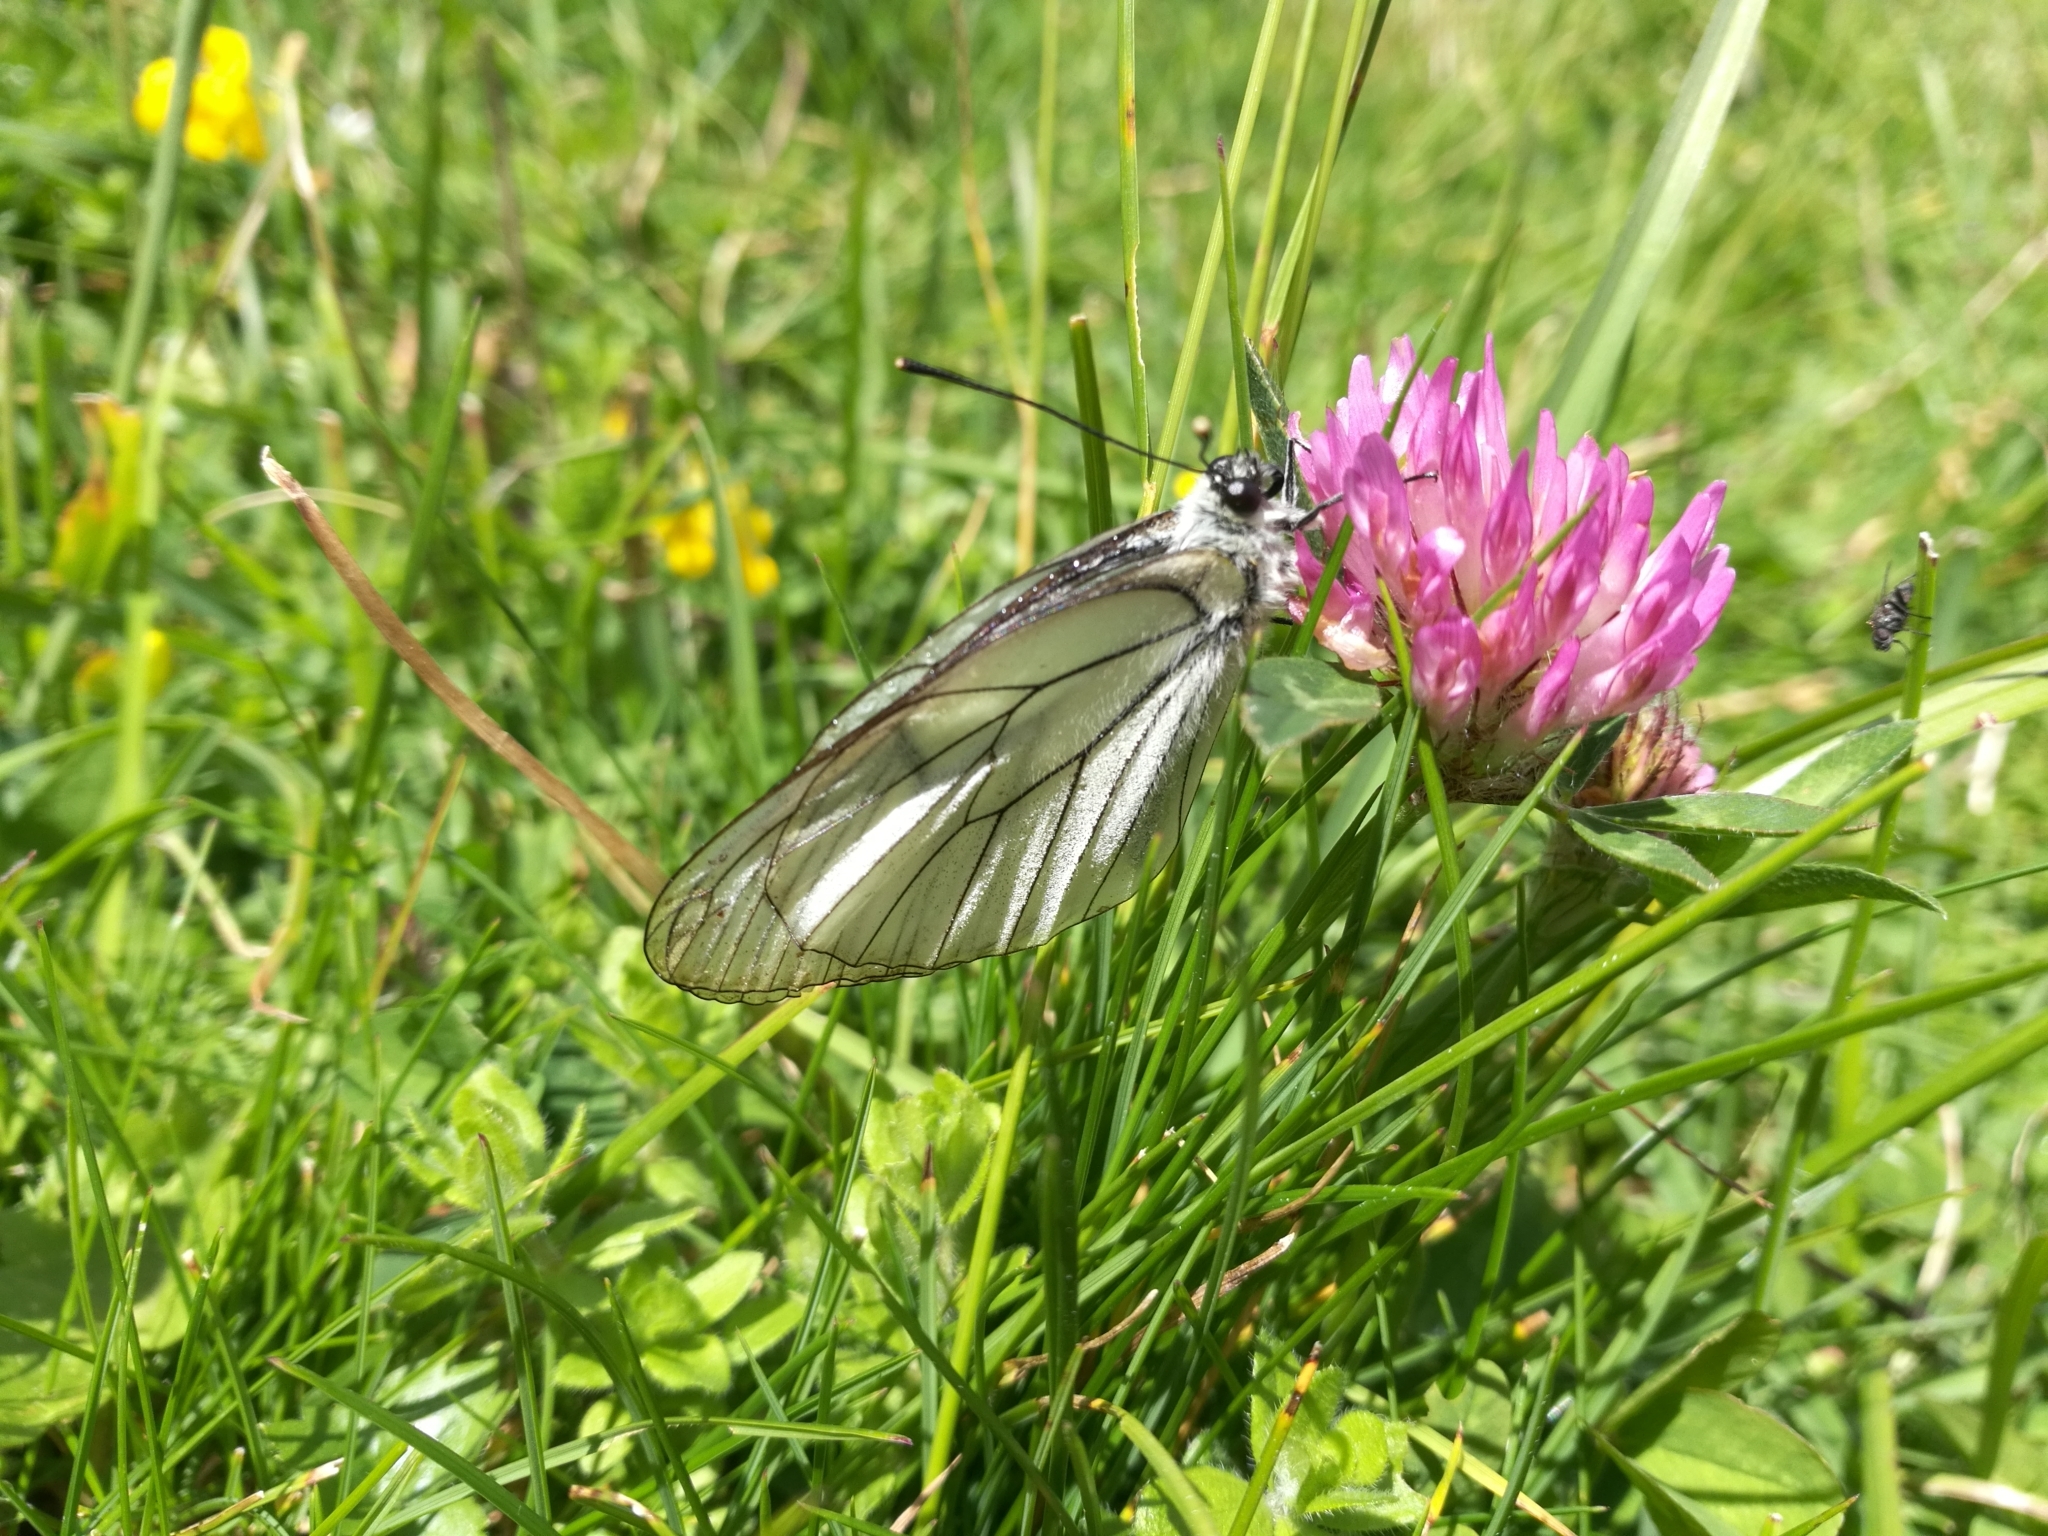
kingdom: Animalia
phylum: Arthropoda
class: Insecta
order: Lepidoptera
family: Pieridae
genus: Aporia
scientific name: Aporia crataegi
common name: Black-veined white
